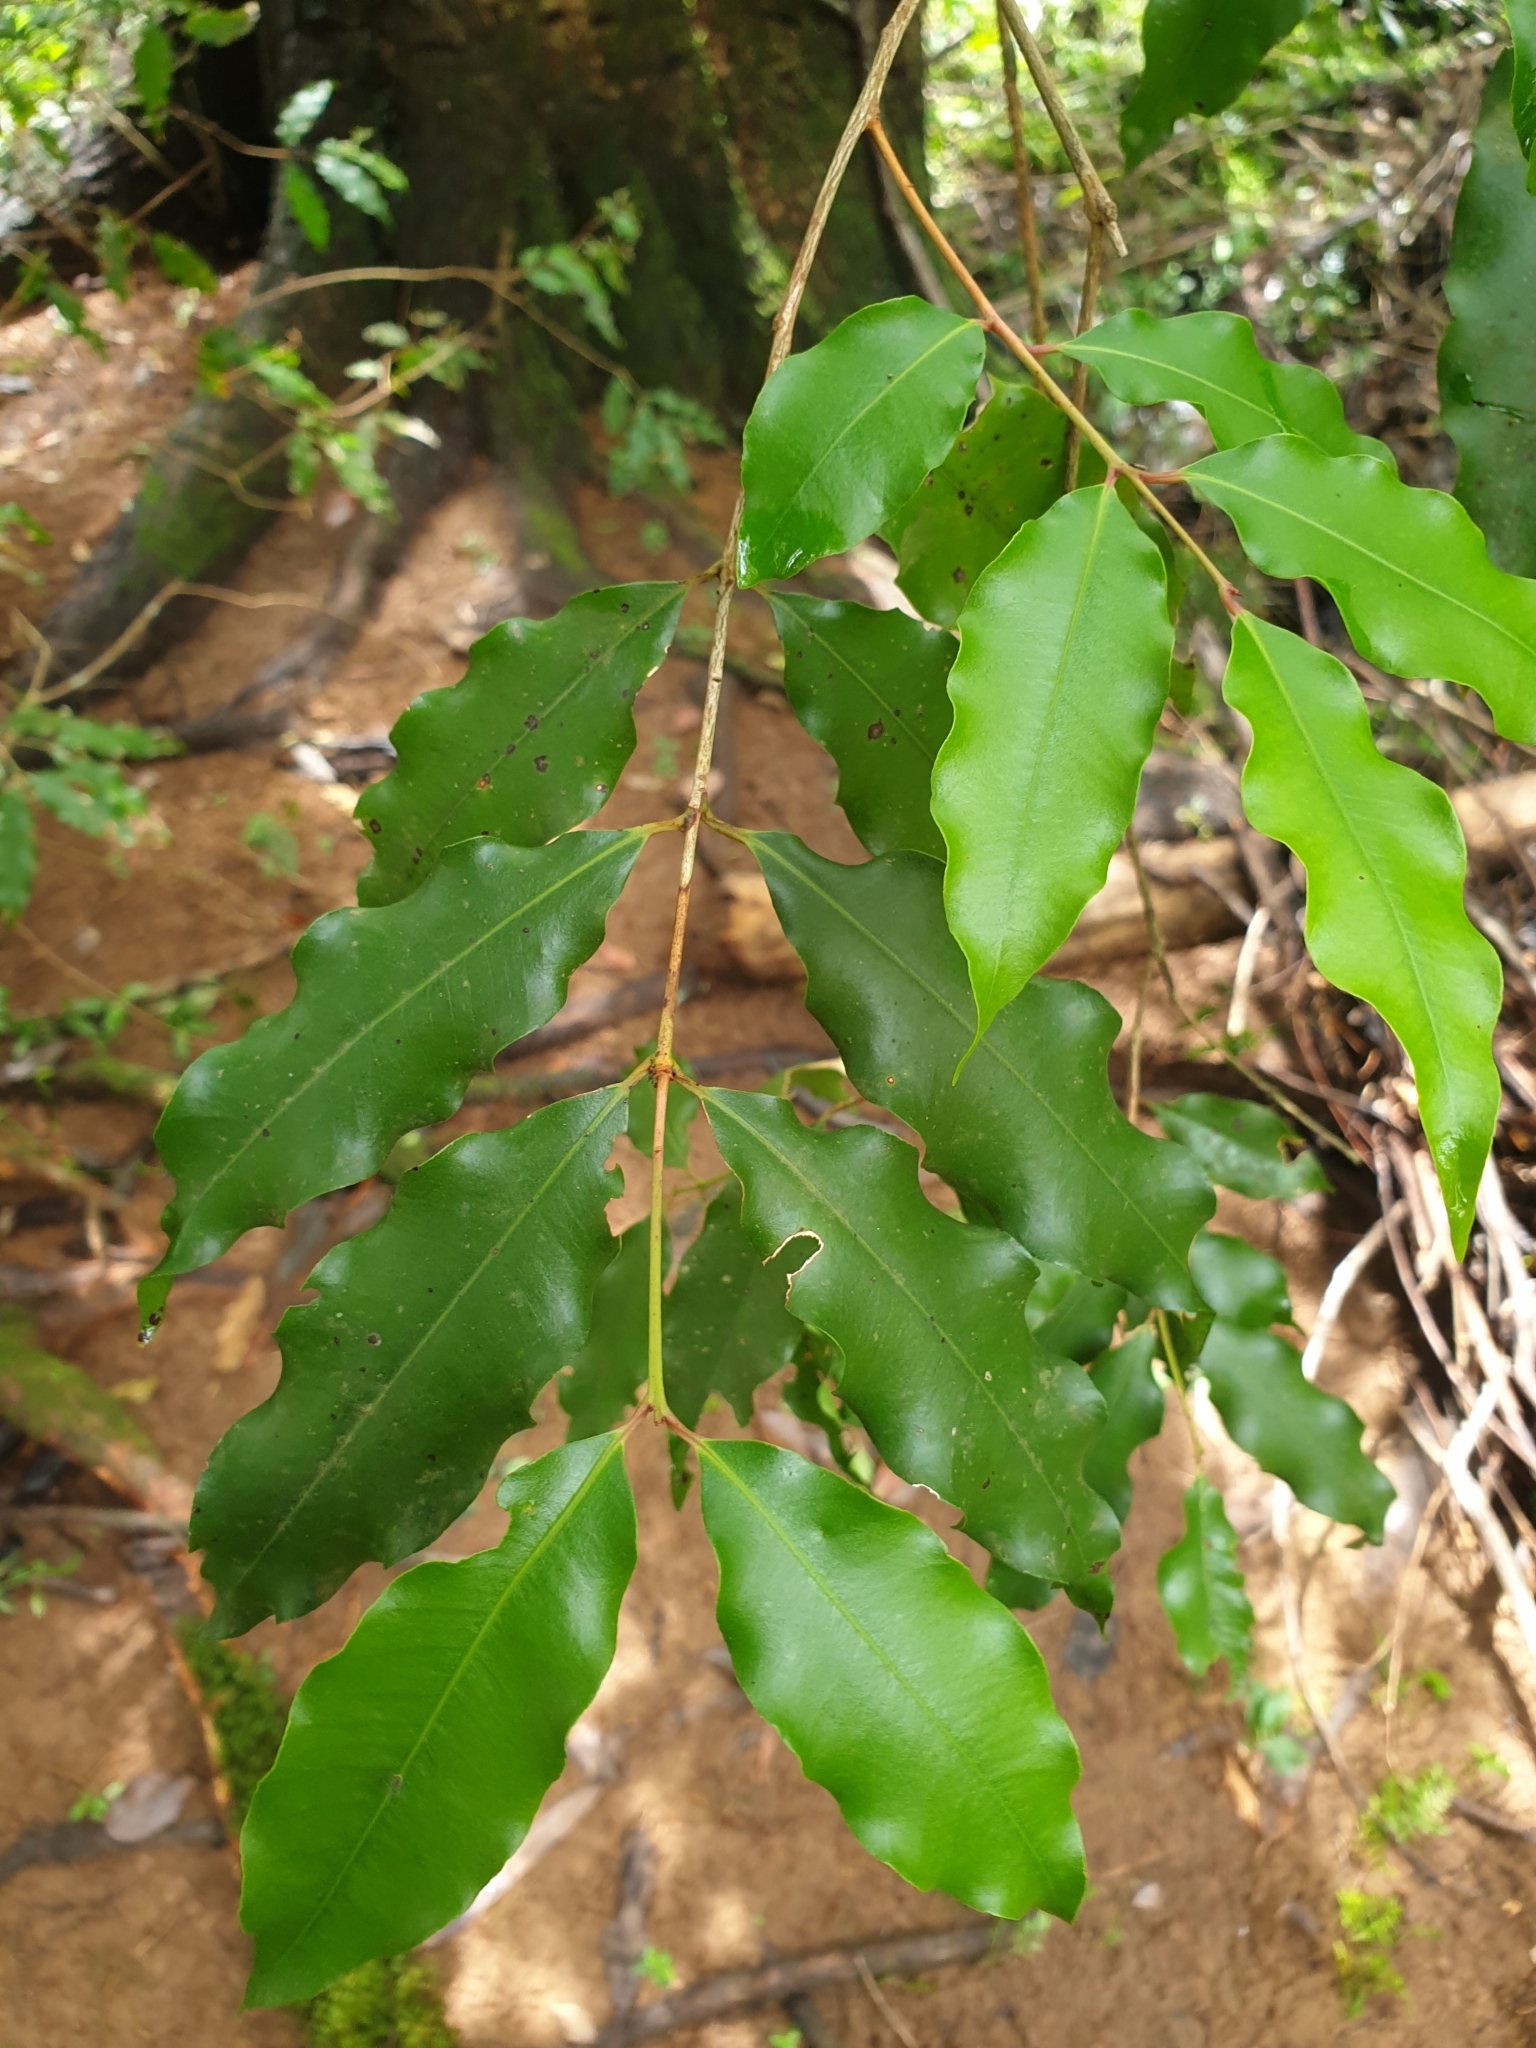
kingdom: Plantae
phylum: Tracheophyta
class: Magnoliopsida
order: Myrtales
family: Myrtaceae
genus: Syzygium
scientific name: Syzygium anisatum
